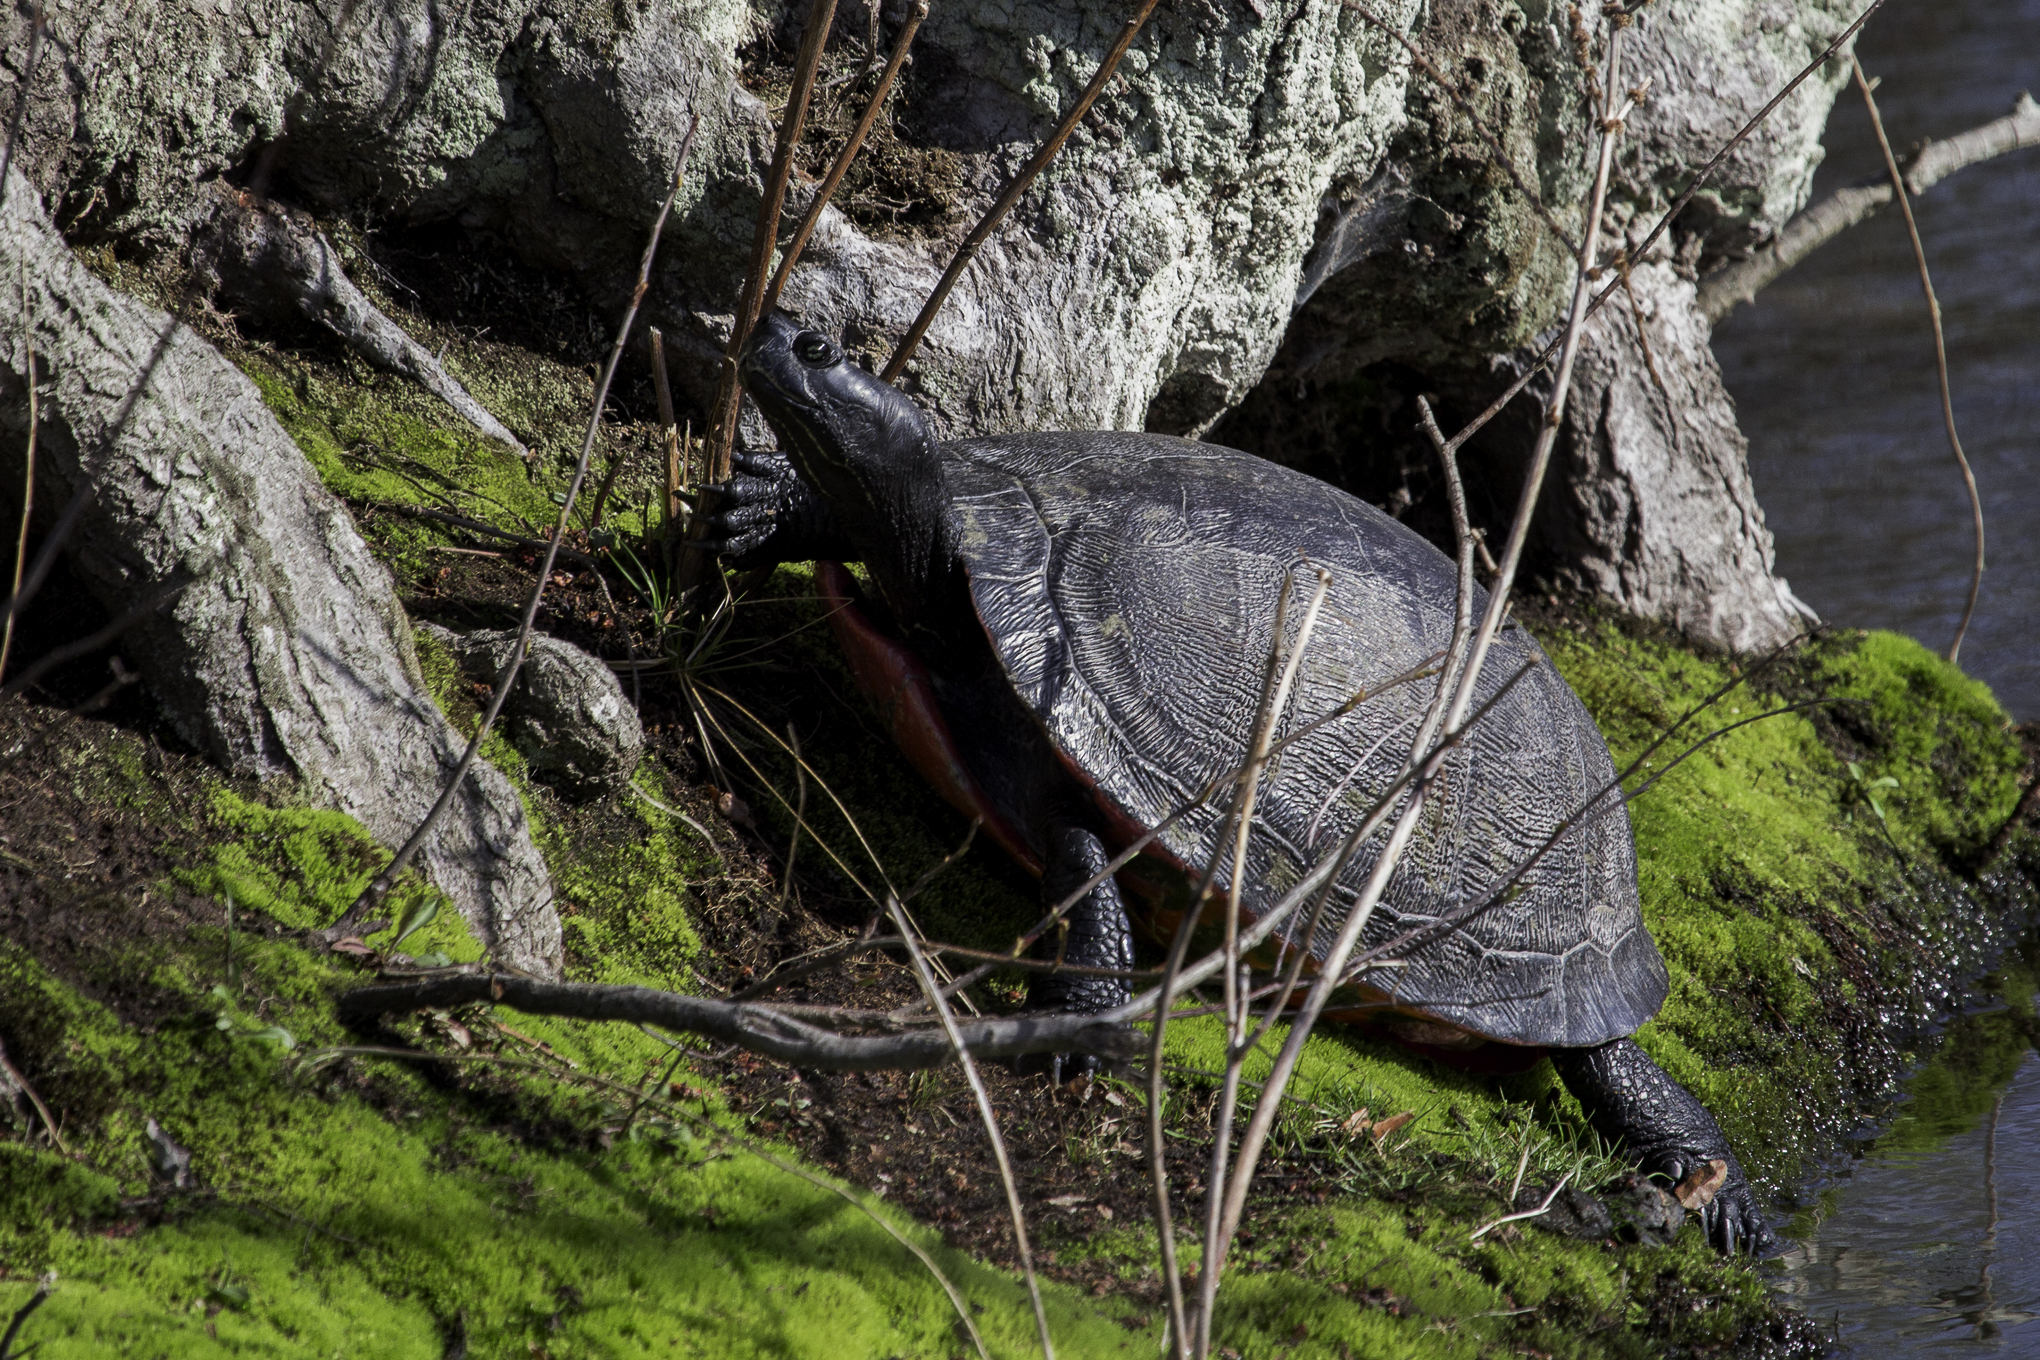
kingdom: Animalia
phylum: Chordata
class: Testudines
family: Emydidae
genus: Pseudemys
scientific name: Pseudemys rubriventris
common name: American red-bellied turtle
